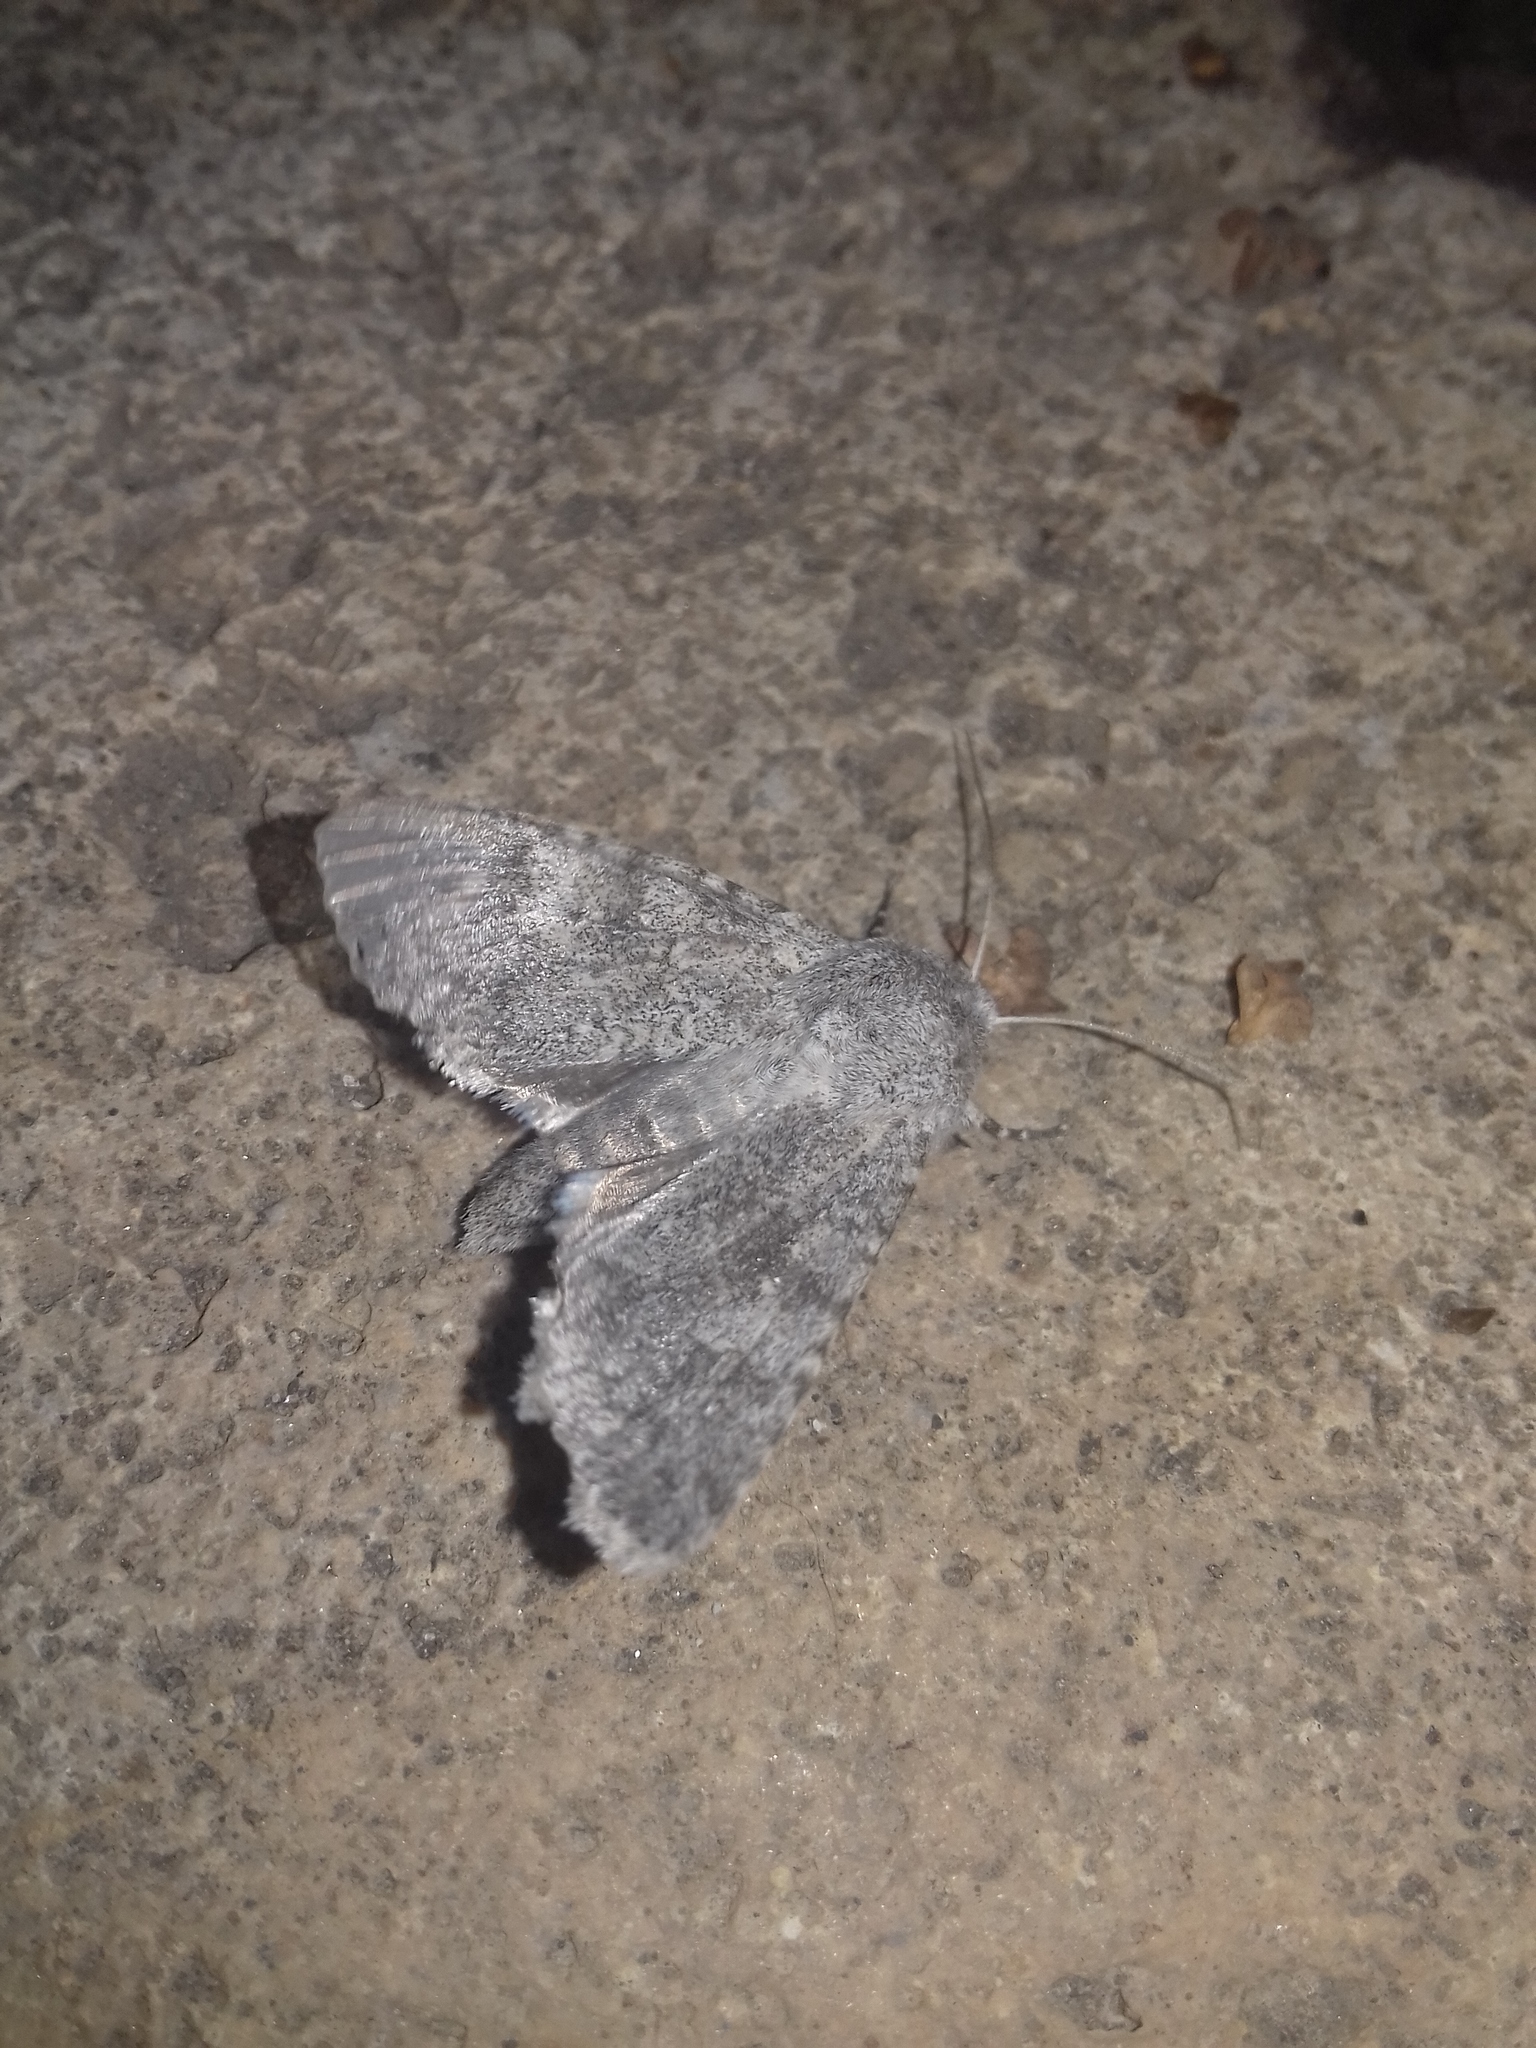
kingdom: Animalia
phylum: Arthropoda
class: Insecta
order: Lepidoptera
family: Noctuidae
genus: Ammoconia
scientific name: Ammoconia senex
